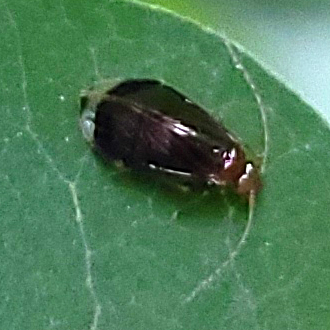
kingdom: Animalia
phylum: Arthropoda
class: Insecta
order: Psocodea
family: Amphipsocidae
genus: Polypsocus
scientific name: Polypsocus corruptus
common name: Corrupt barklouse
